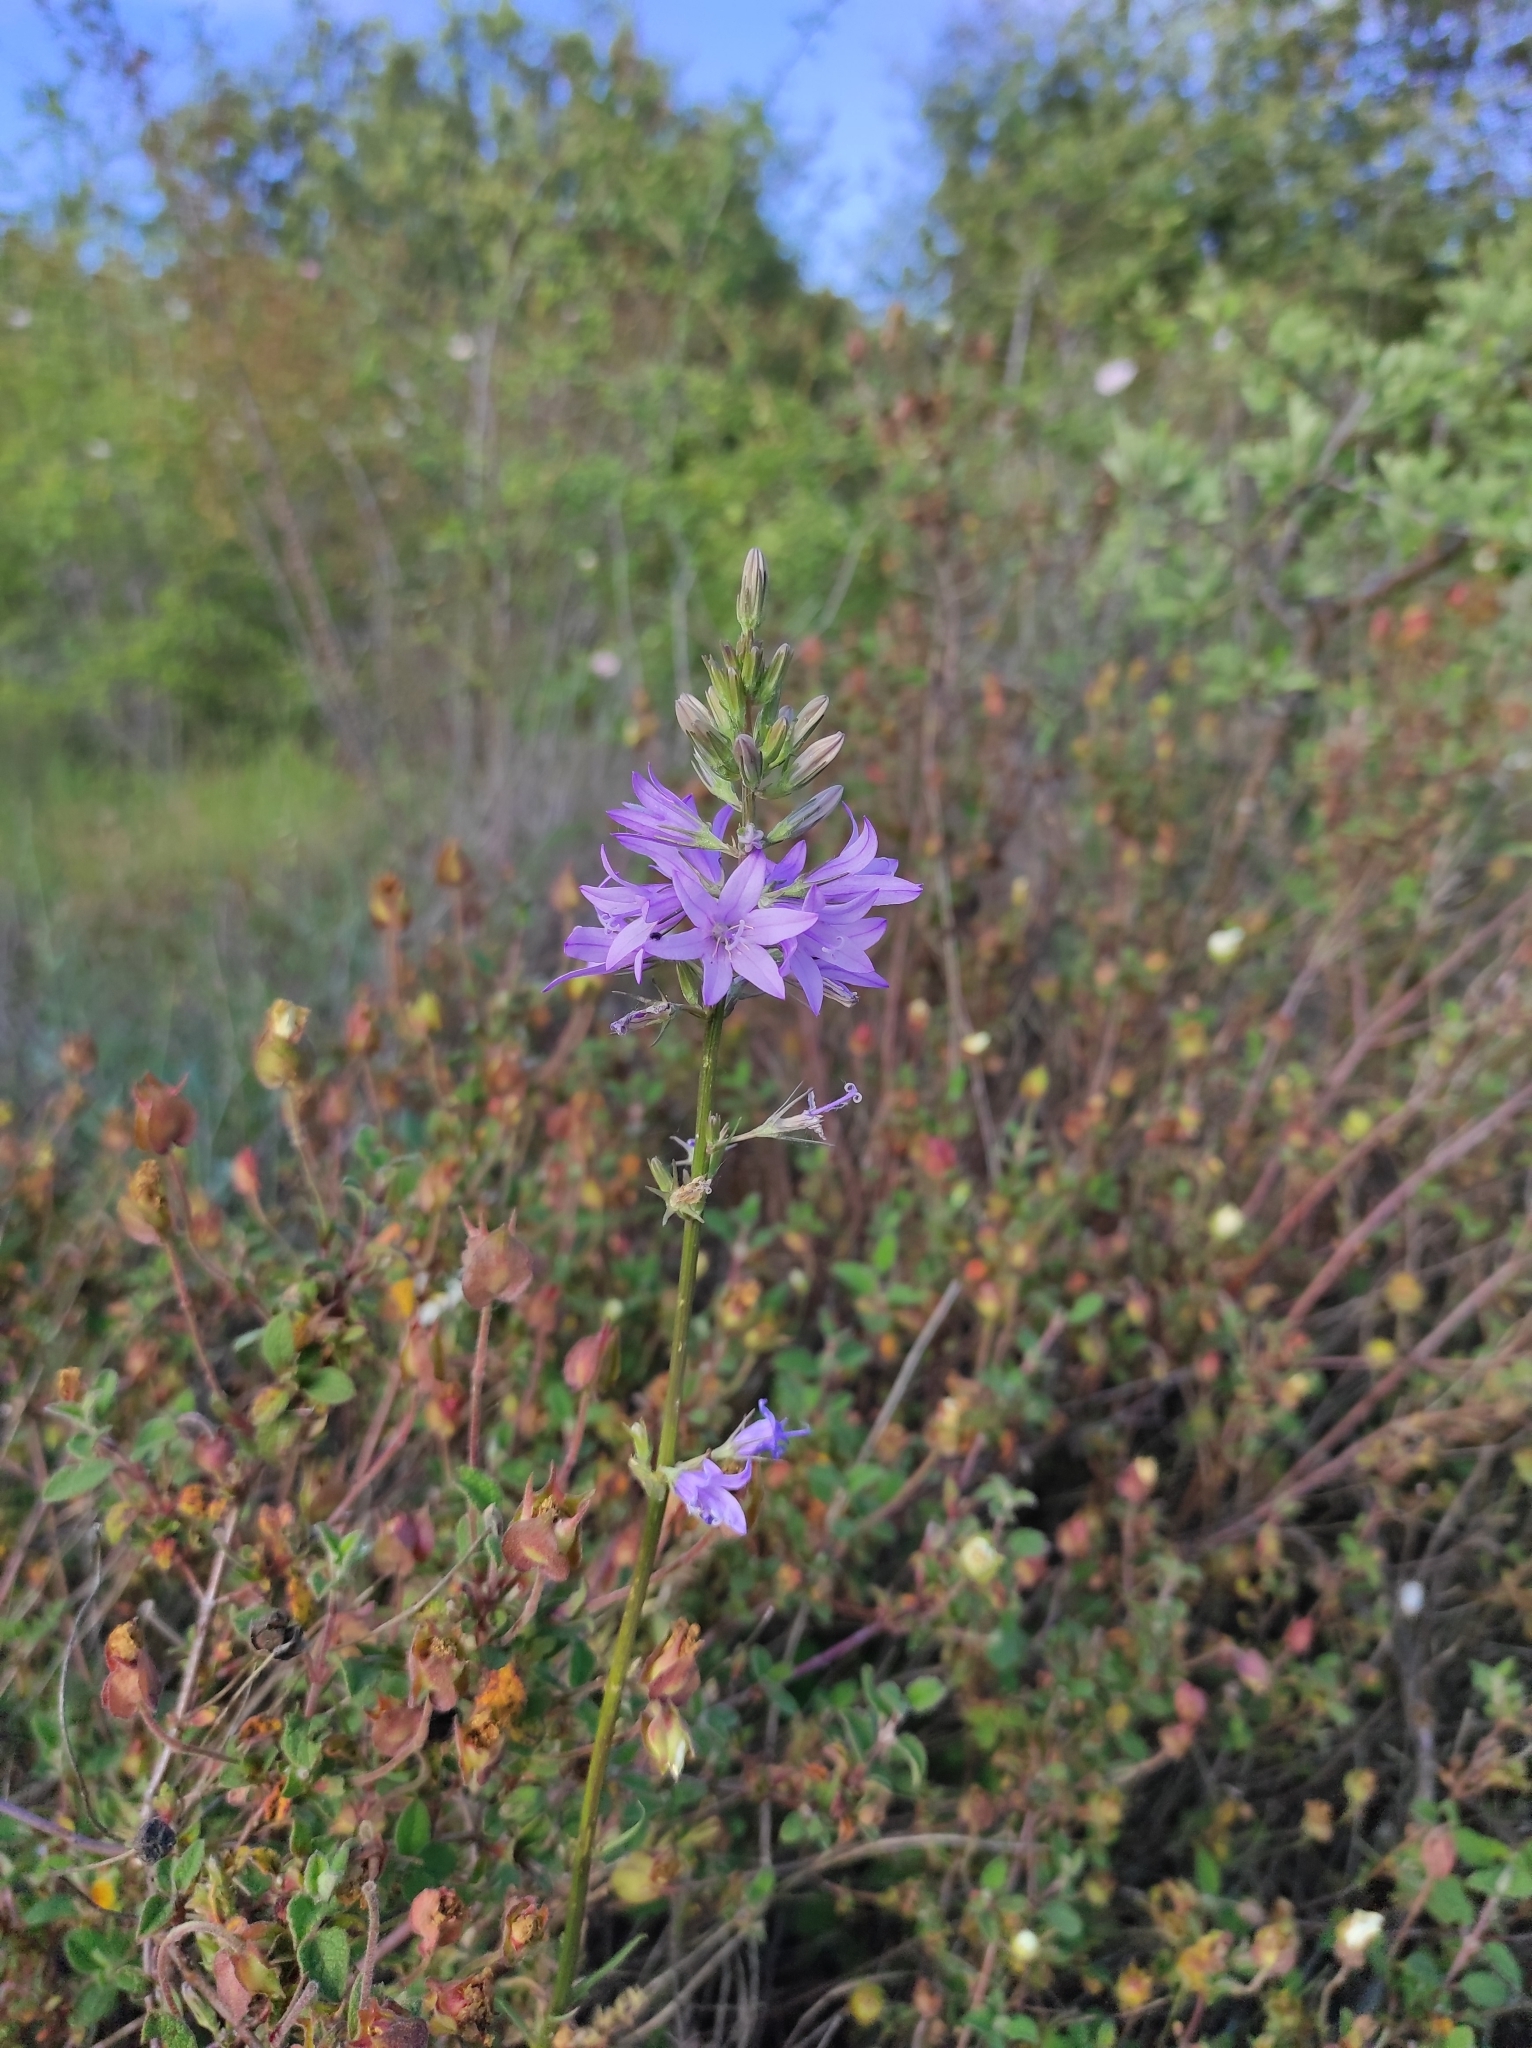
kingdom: Plantae
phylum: Tracheophyta
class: Magnoliopsida
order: Asterales
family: Campanulaceae
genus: Campanula
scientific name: Campanula rapunculus
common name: Rampion bellflower
